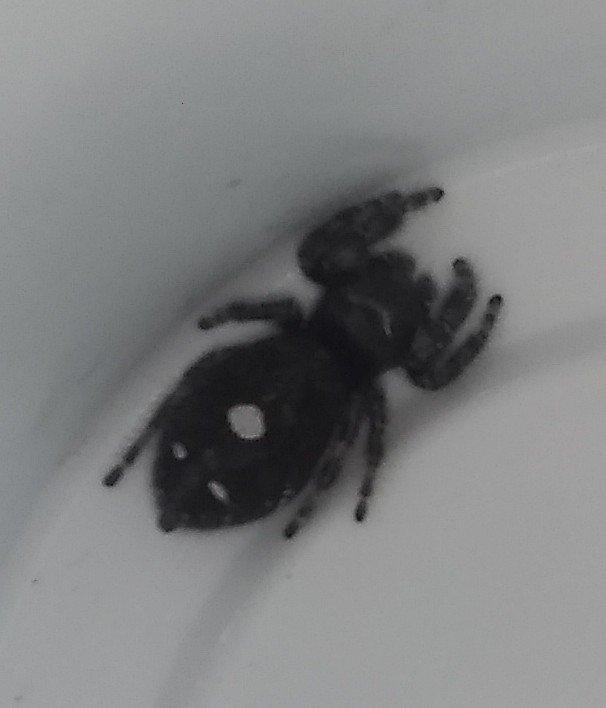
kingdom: Animalia
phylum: Arthropoda
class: Arachnida
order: Araneae
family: Salticidae
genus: Phidippus
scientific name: Phidippus audax
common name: Bold jumper
